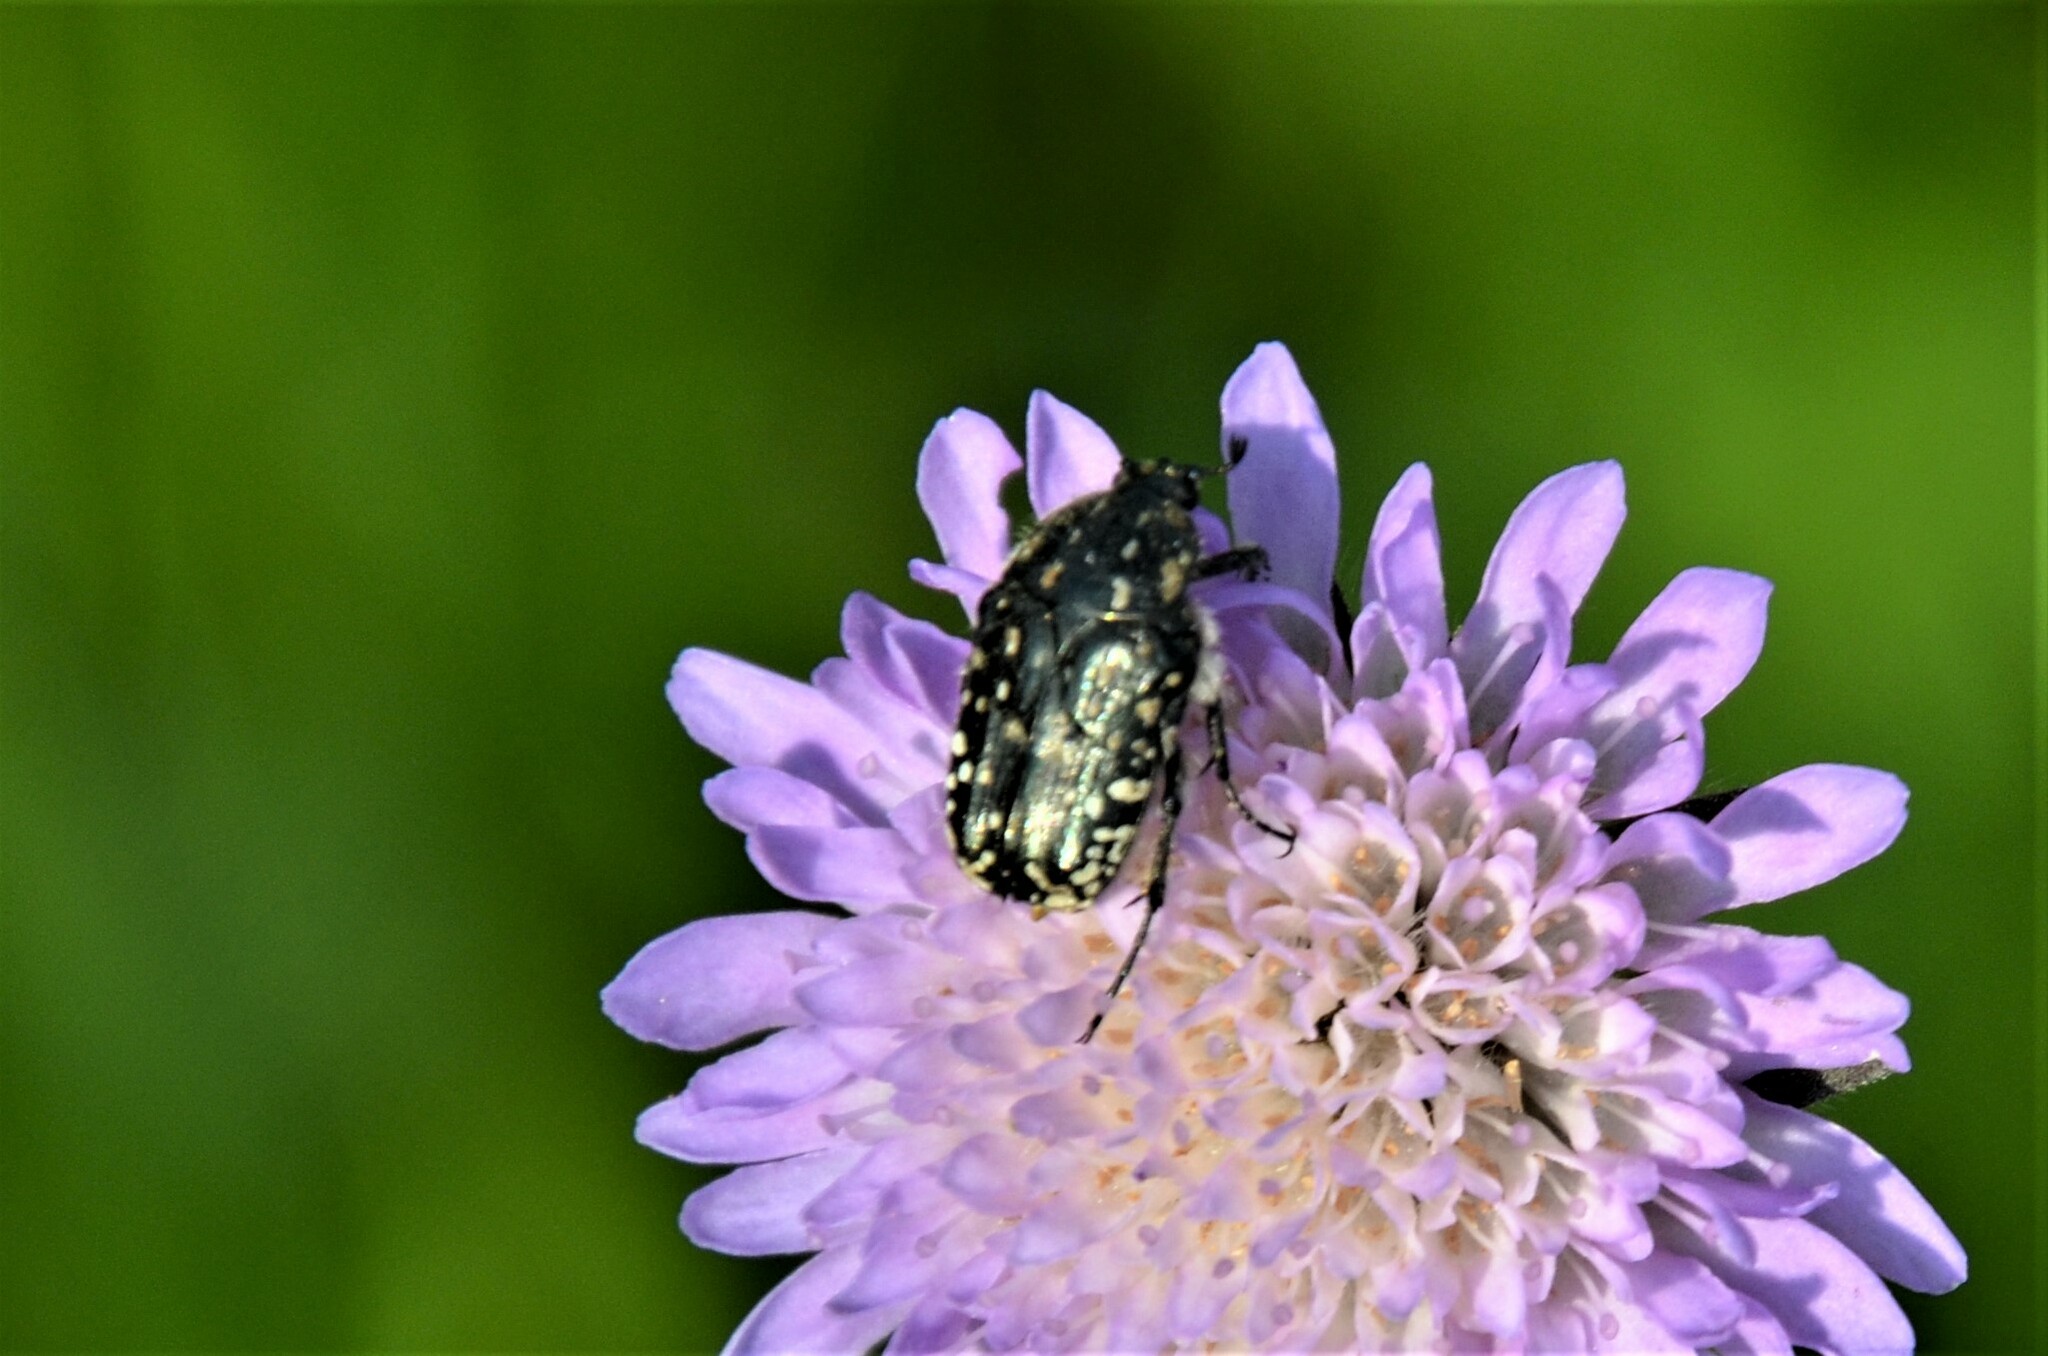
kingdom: Animalia
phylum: Arthropoda
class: Insecta
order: Coleoptera
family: Scarabaeidae
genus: Oxythyrea
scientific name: Oxythyrea funesta
